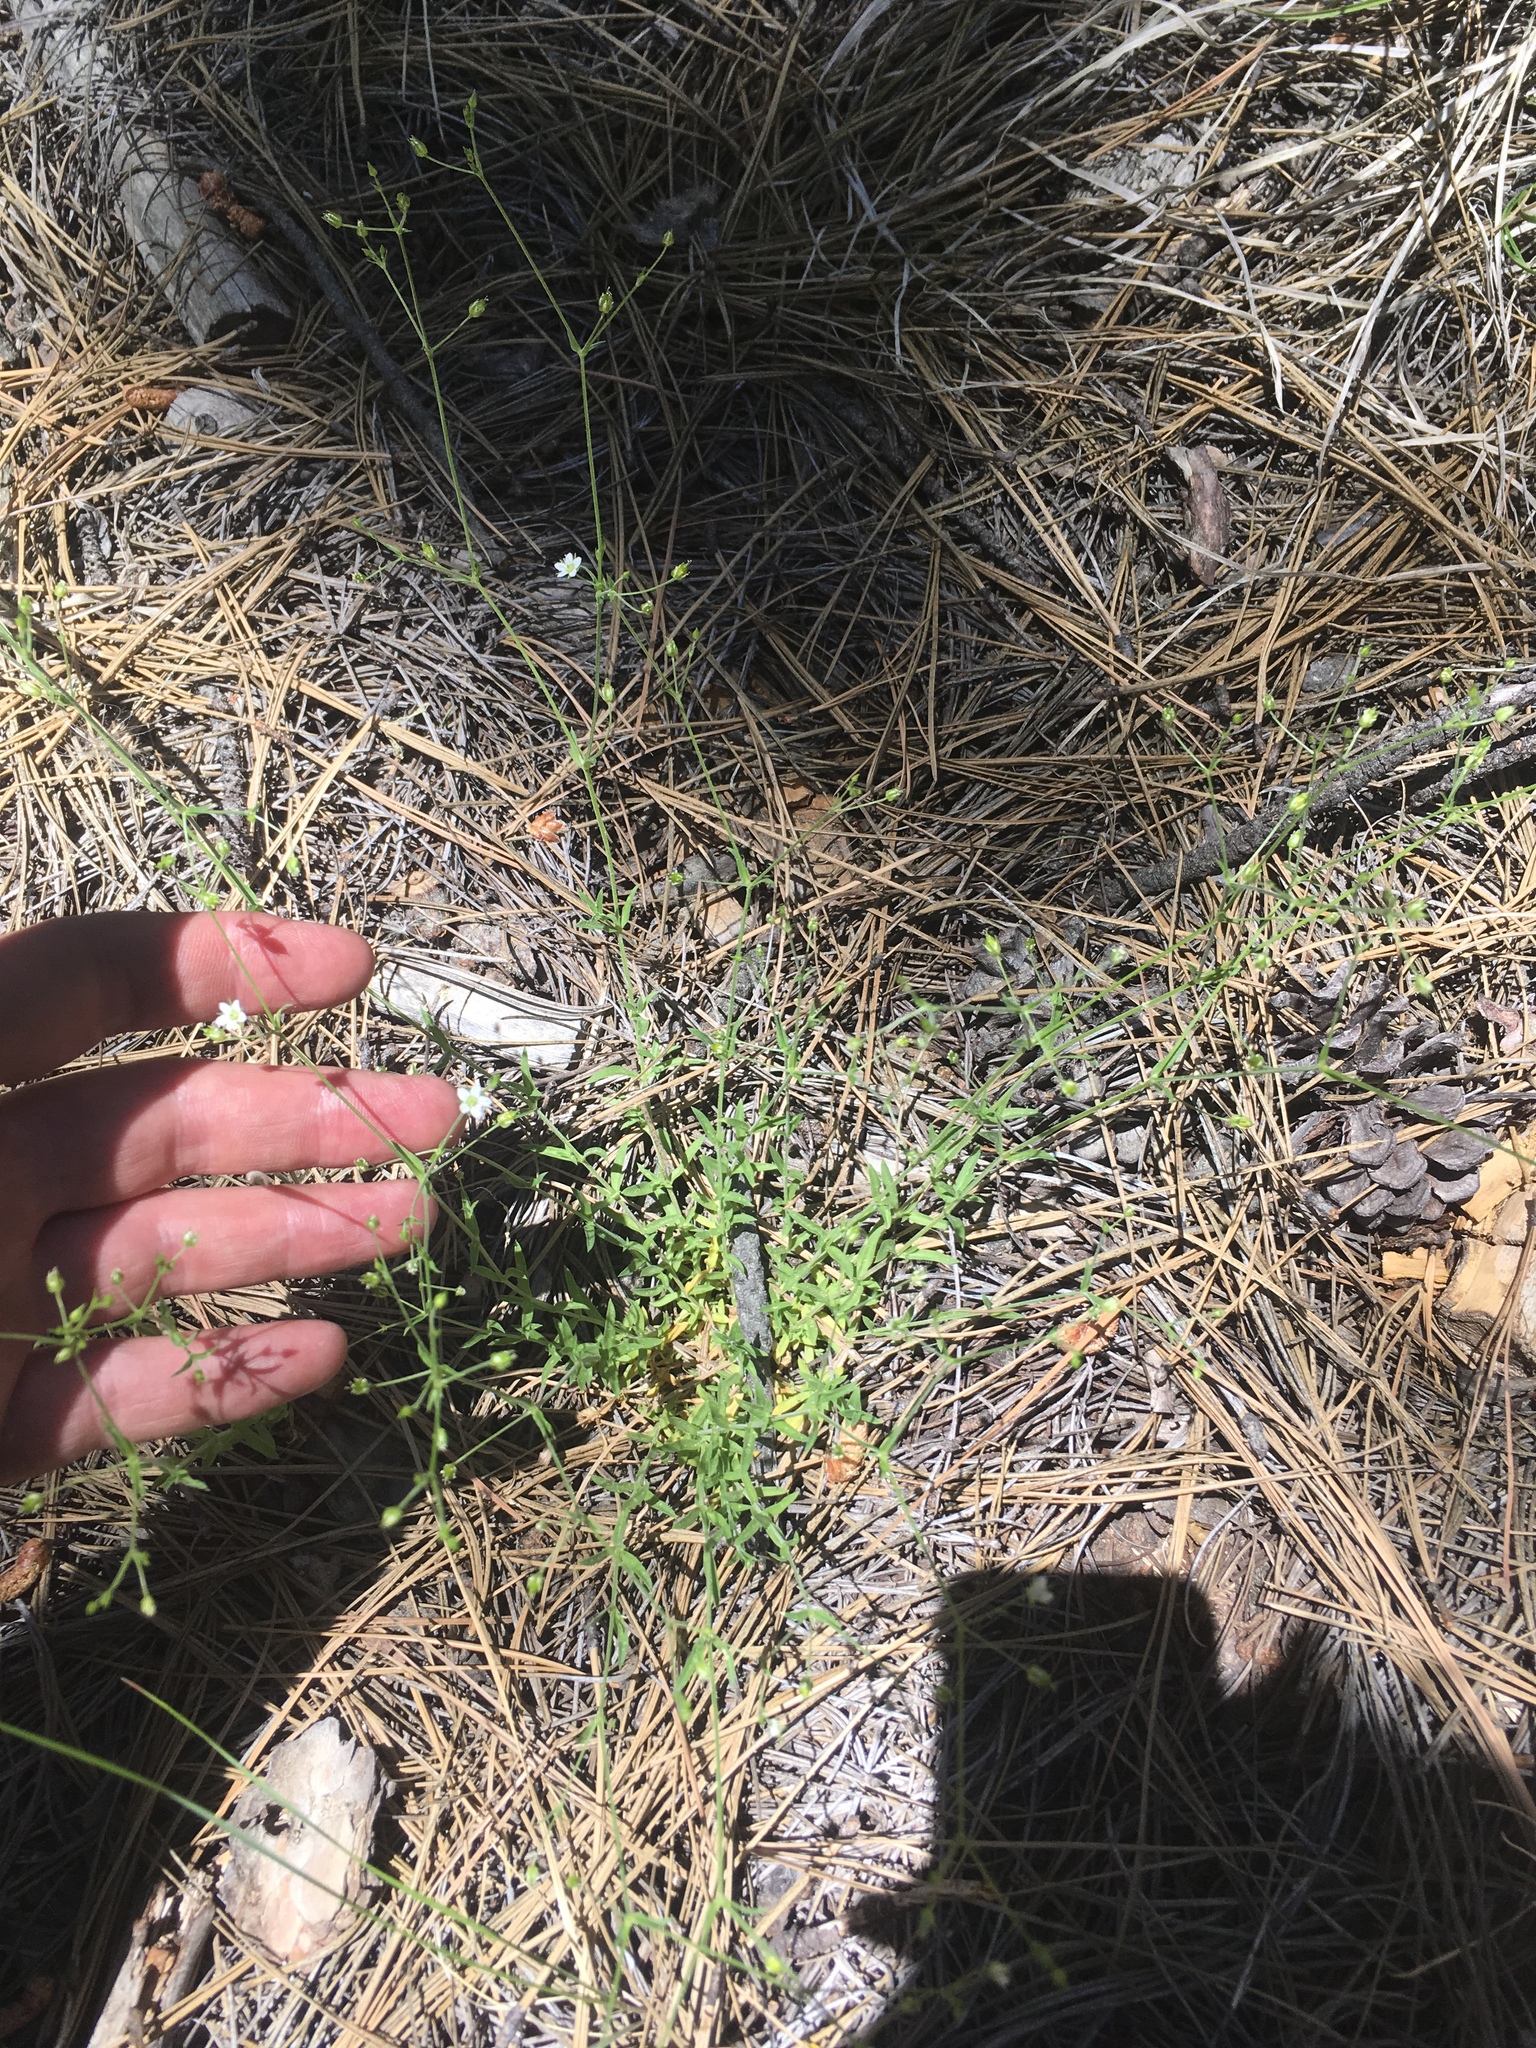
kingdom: Plantae
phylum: Tracheophyta
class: Magnoliopsida
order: Caryophyllales
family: Caryophyllaceae
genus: Arenaria
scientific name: Arenaria lanuginosa
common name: Spread sandwort
